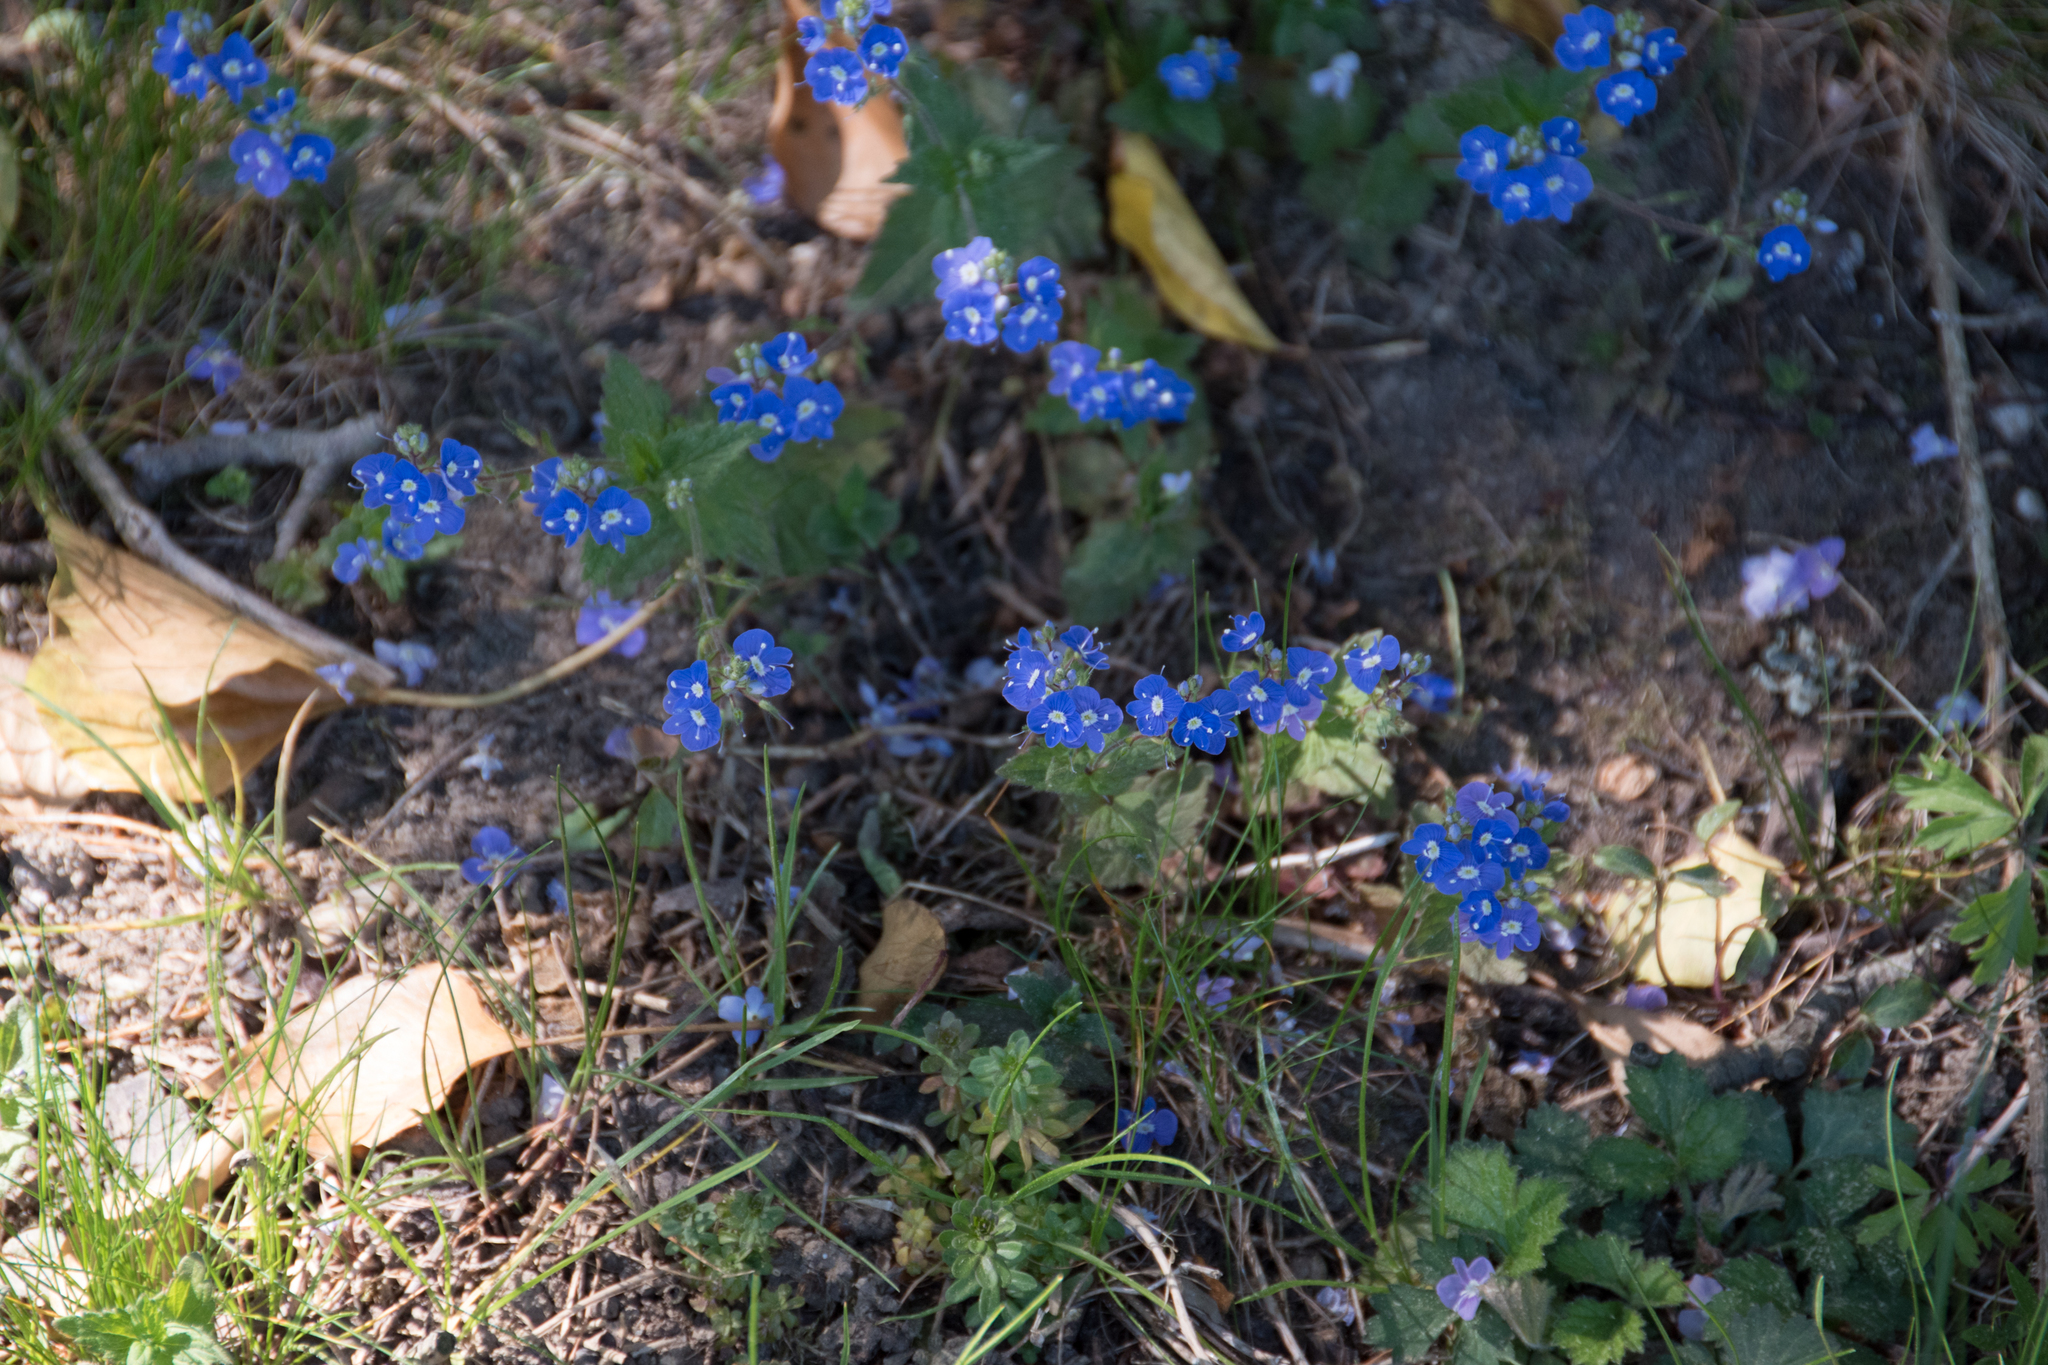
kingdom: Plantae
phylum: Tracheophyta
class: Magnoliopsida
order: Lamiales
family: Plantaginaceae
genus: Veronica
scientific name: Veronica chamaedrys
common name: Germander speedwell
